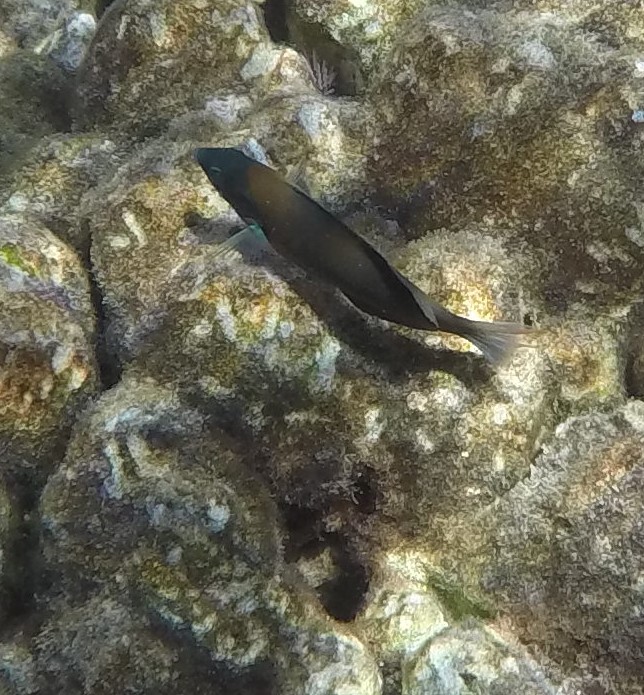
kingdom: Animalia
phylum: Chordata
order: Perciformes
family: Labridae
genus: Thalassoma
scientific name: Thalassoma duperrey
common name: Saddle wrasse
